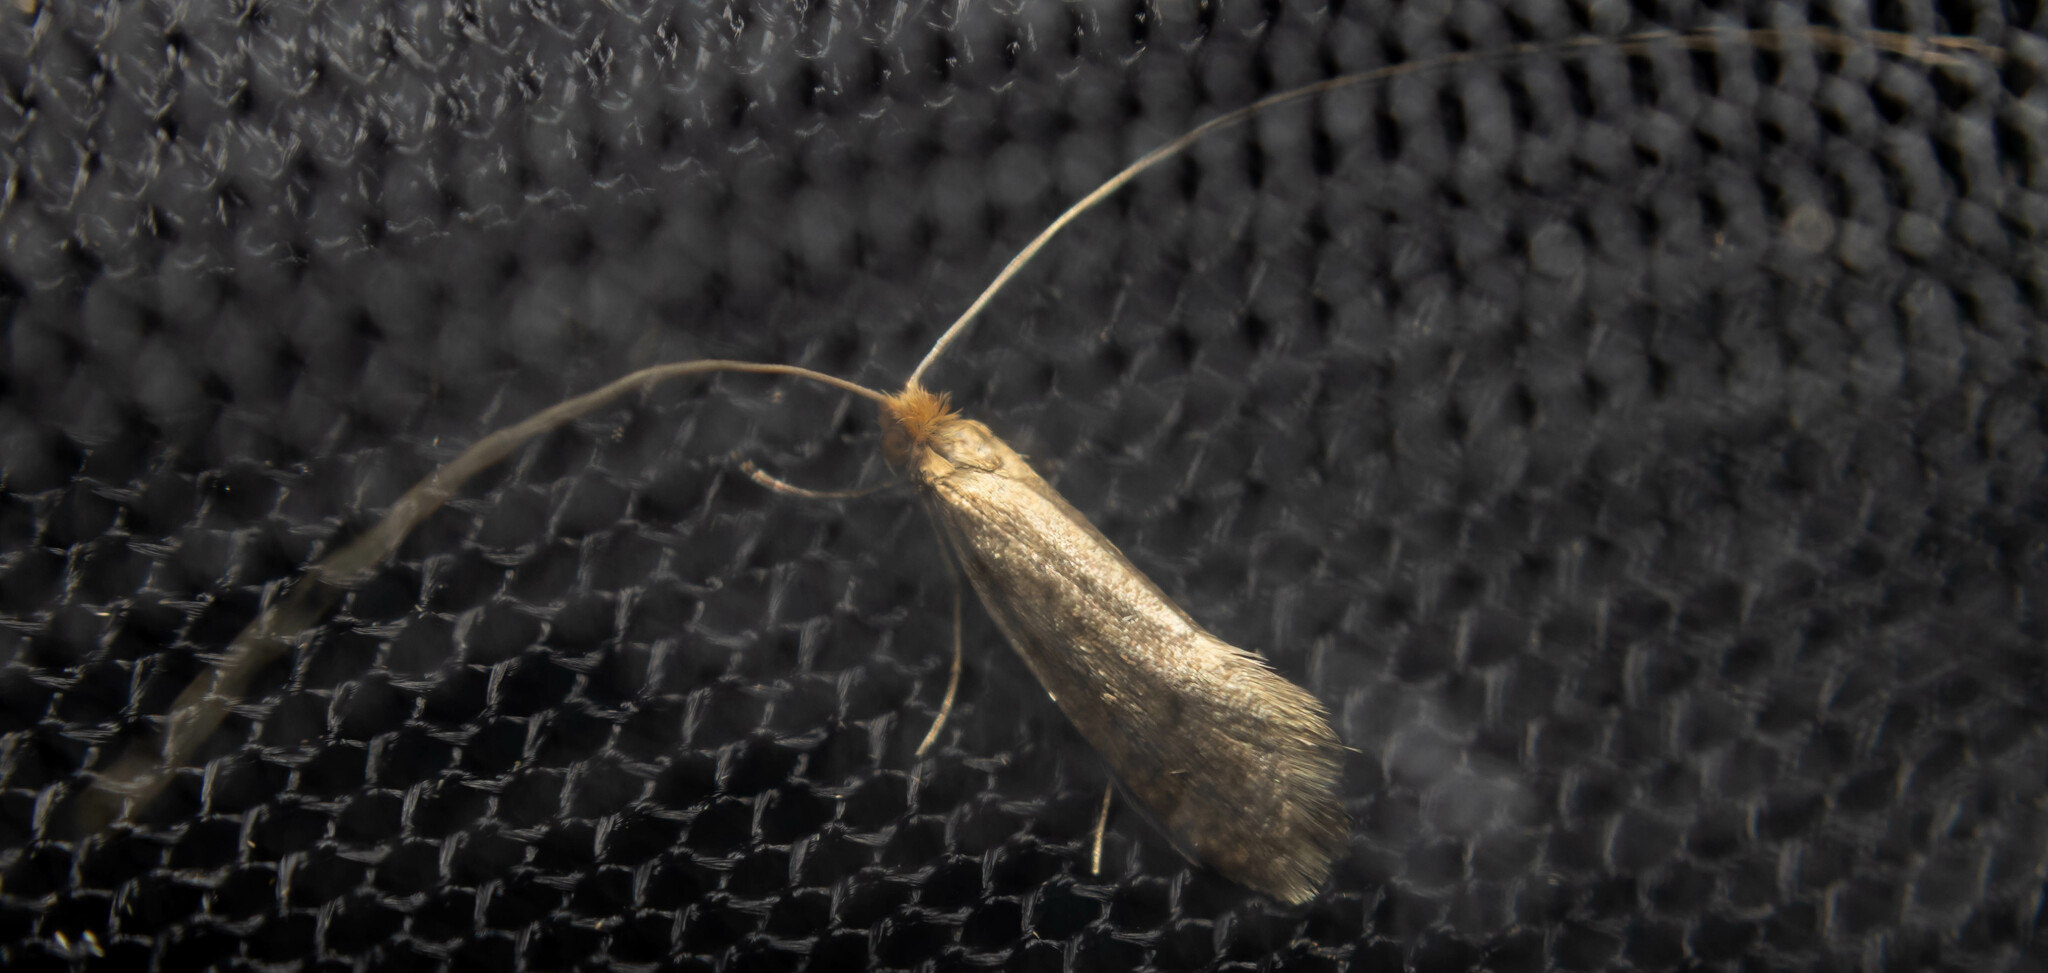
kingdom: Animalia
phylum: Arthropoda
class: Insecta
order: Lepidoptera
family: Adelidae
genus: Nematopogon
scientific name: Nematopogon swammerdamella
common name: Large long-horn
